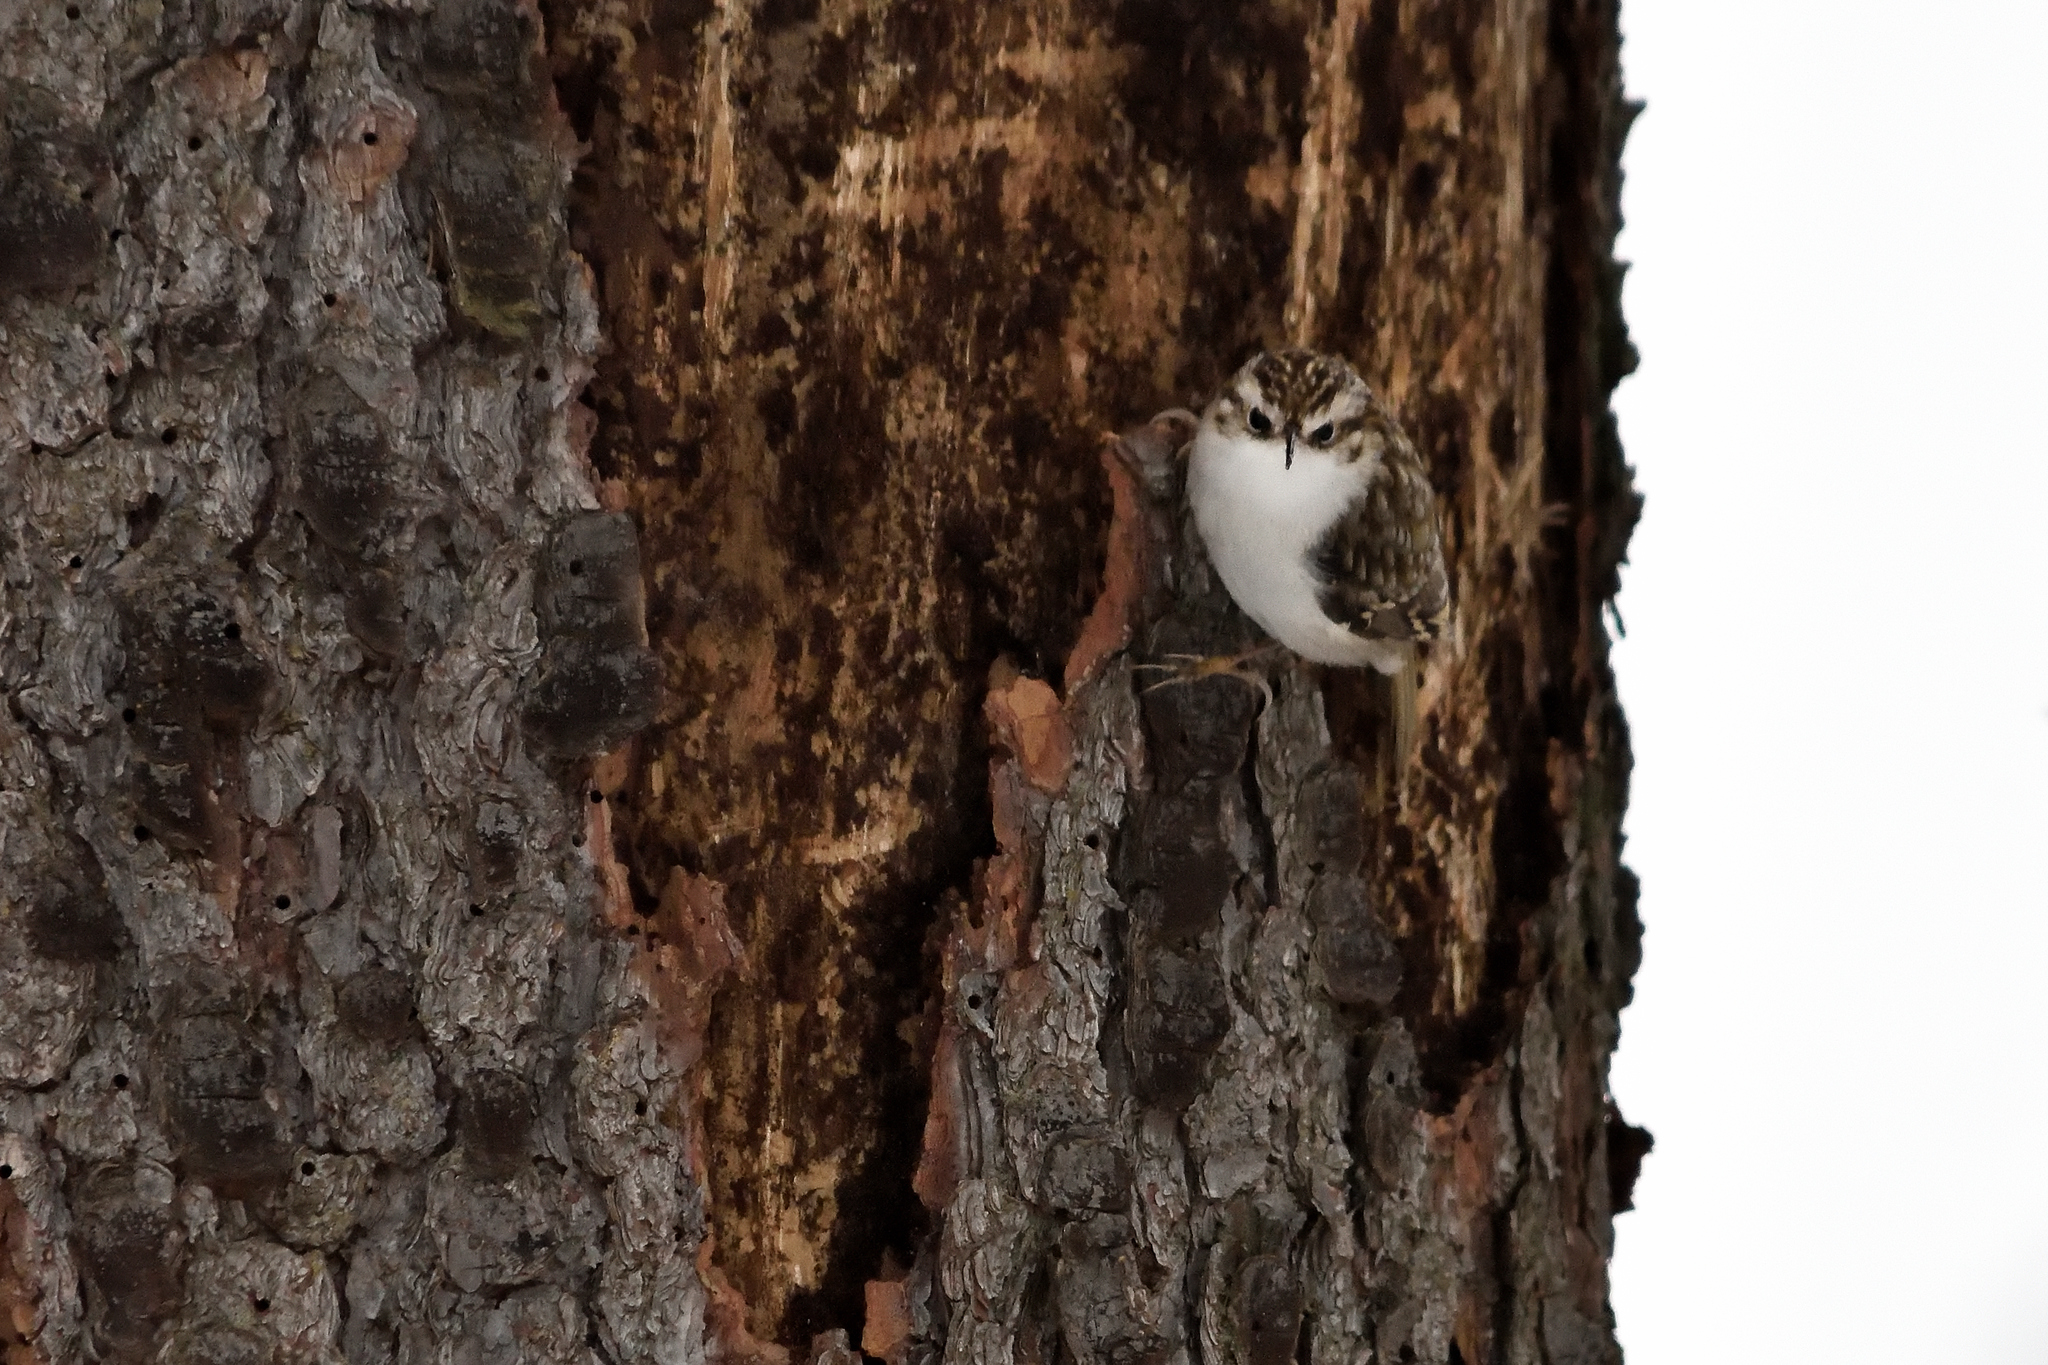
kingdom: Animalia
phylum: Chordata
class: Aves
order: Passeriformes
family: Certhiidae
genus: Certhia
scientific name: Certhia brachydactyla
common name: Short-toed treecreeper
